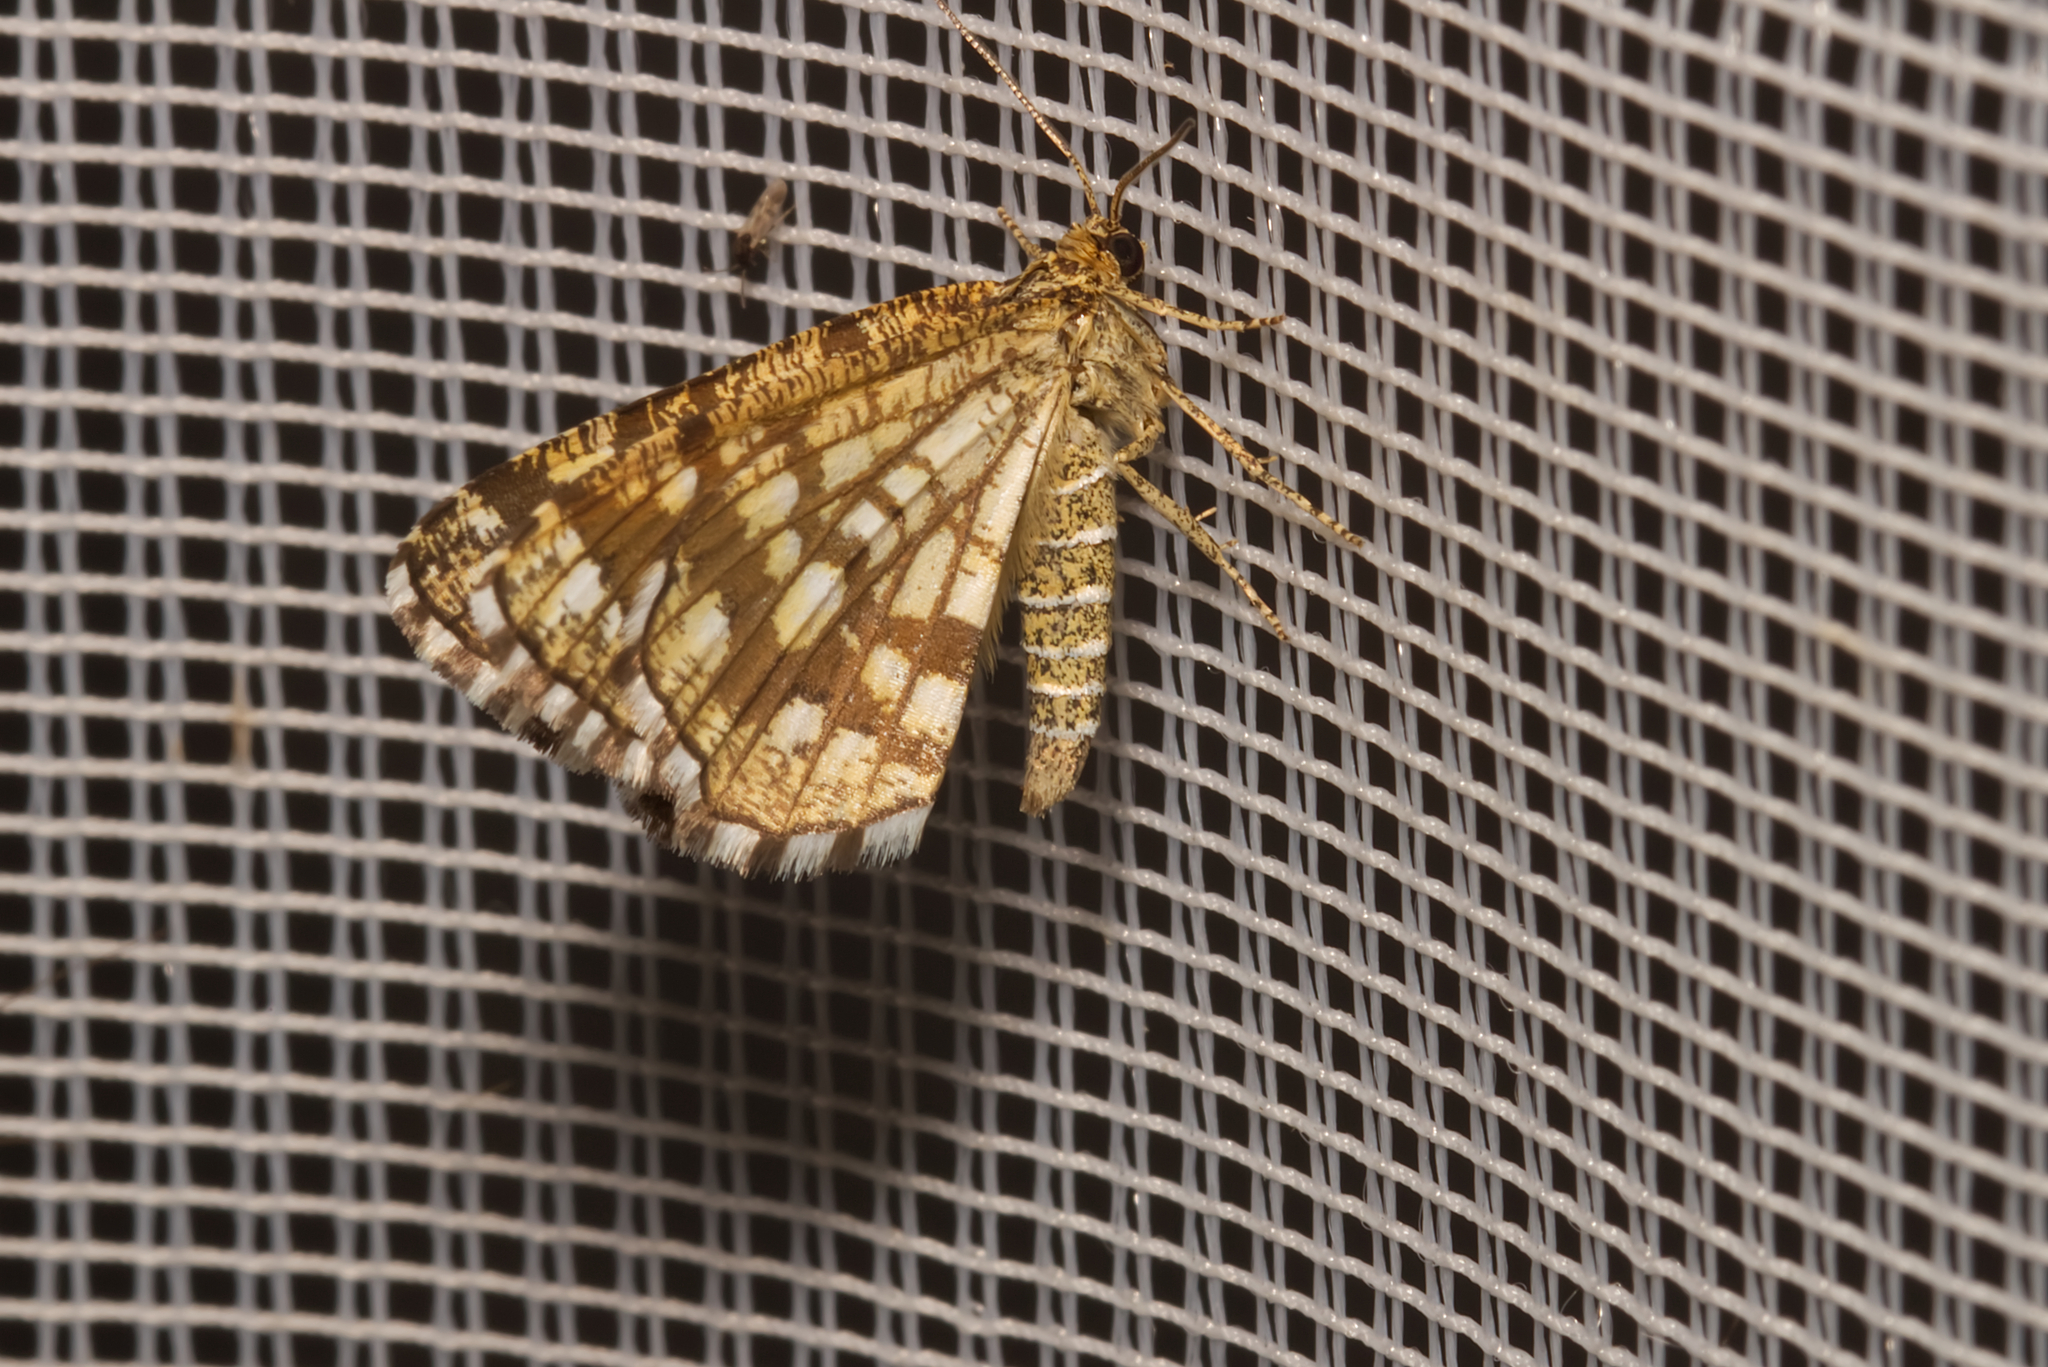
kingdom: Animalia
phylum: Arthropoda
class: Insecta
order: Lepidoptera
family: Geometridae
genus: Chiasmia
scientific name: Chiasmia clathrata
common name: Latticed heath
